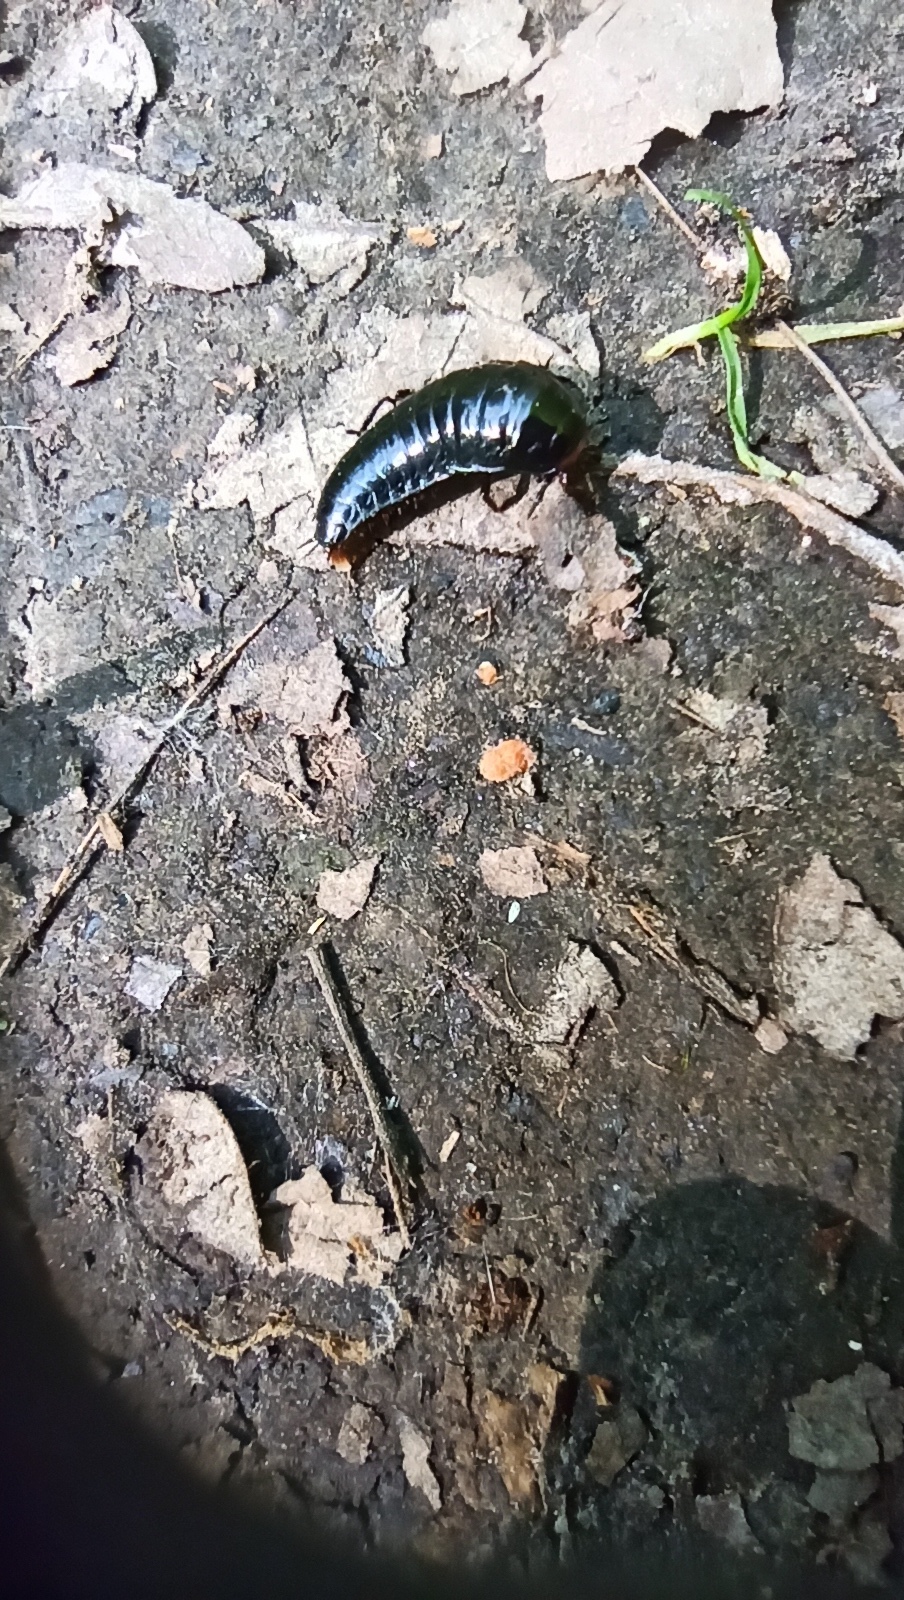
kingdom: Animalia
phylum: Arthropoda
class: Insecta
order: Coleoptera
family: Staphylinidae
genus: Dendroxena
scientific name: Dendroxena quadrimaculata
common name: Carrion beetle
